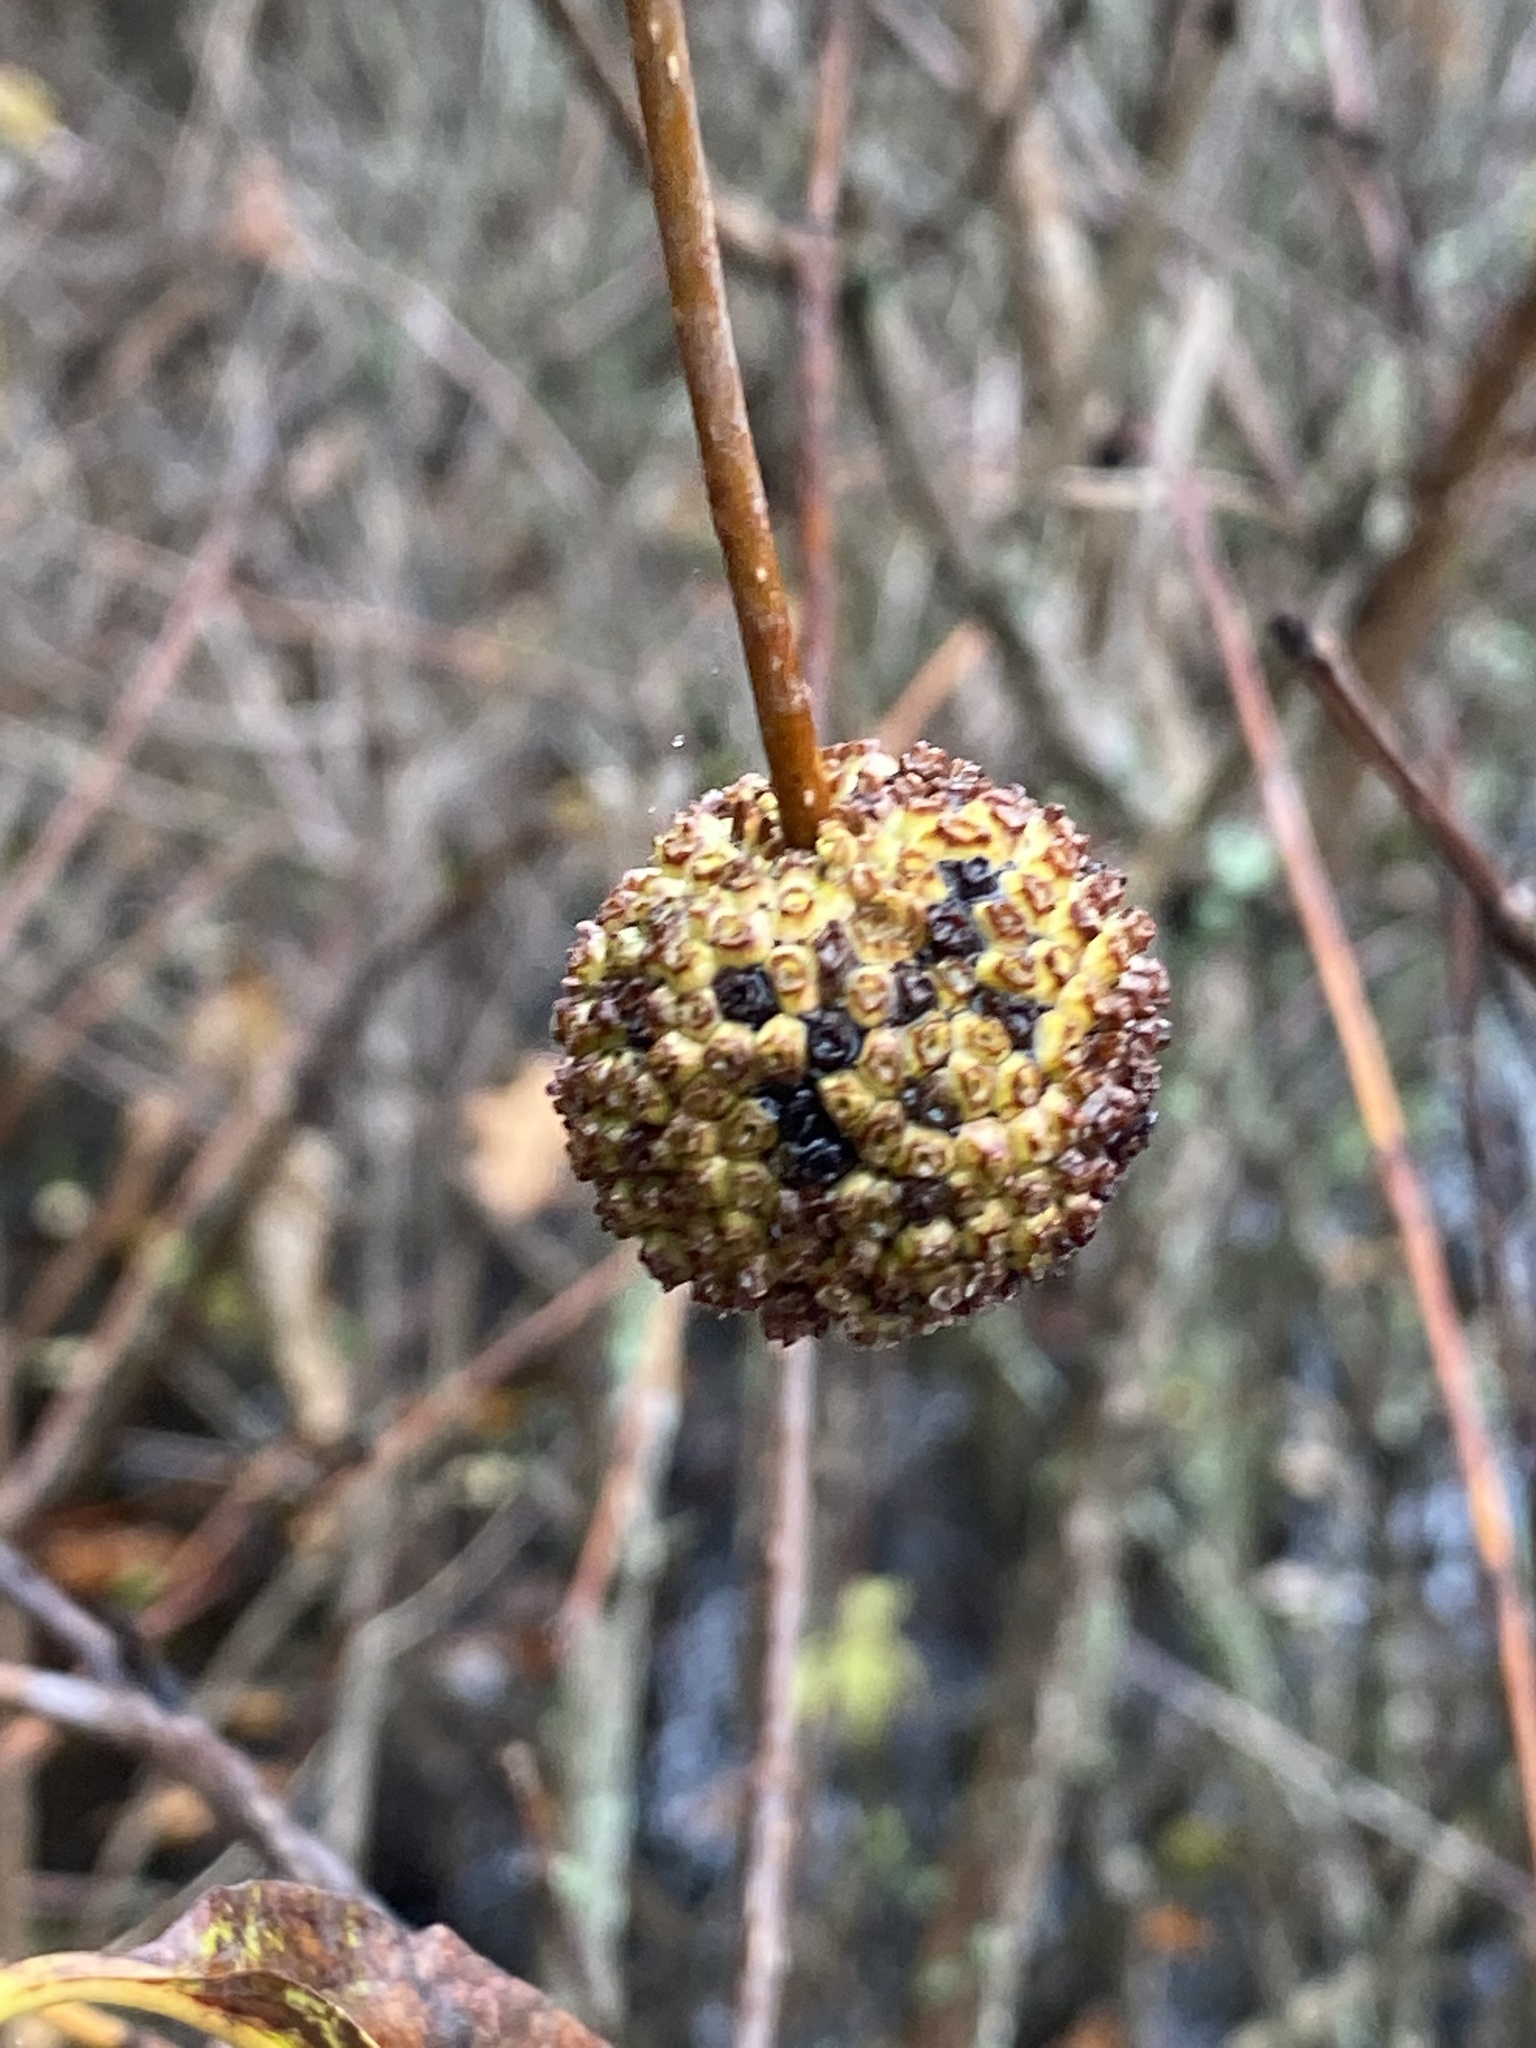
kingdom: Plantae
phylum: Tracheophyta
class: Magnoliopsida
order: Gentianales
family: Rubiaceae
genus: Cephalanthus
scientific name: Cephalanthus occidentalis
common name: Button-willow
